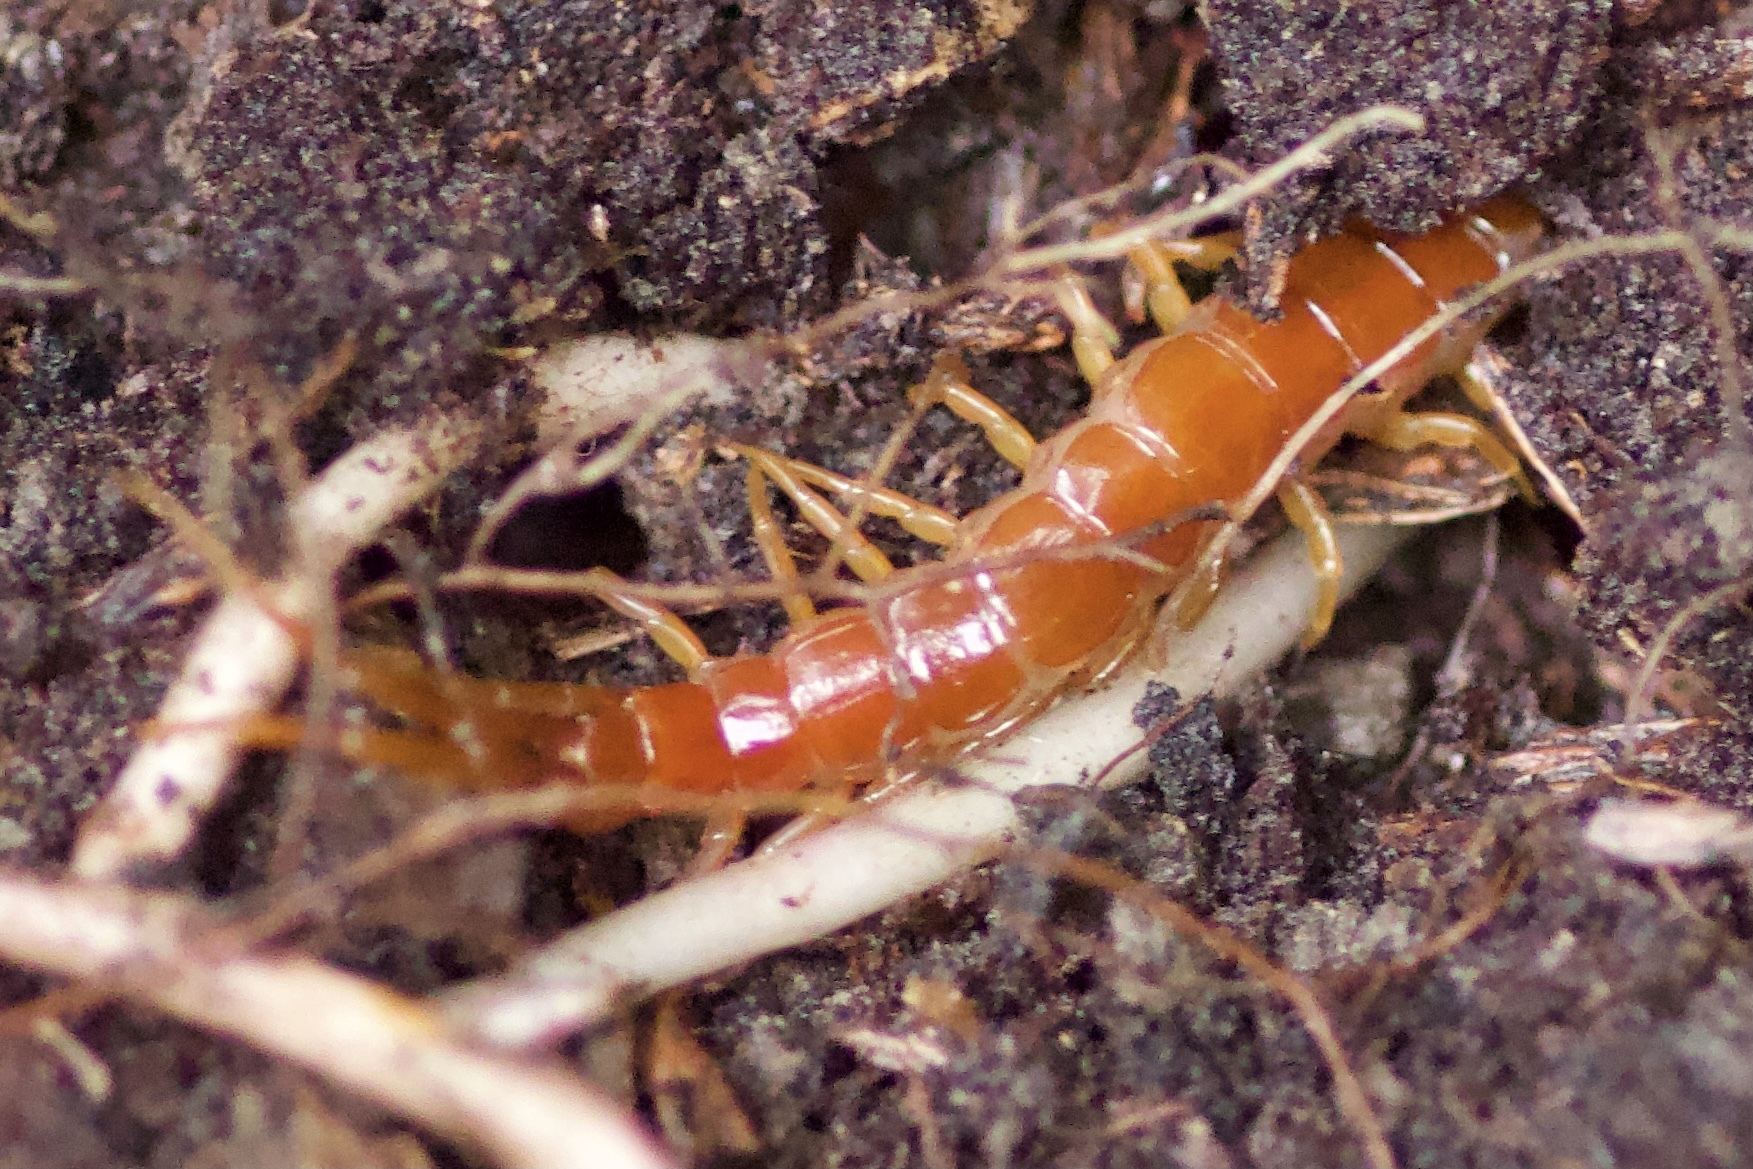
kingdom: Animalia
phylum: Arthropoda
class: Chilopoda
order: Scolopendromorpha
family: Scolopocryptopidae
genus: Scolopocryptops
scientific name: Scolopocryptops spinicaudus
